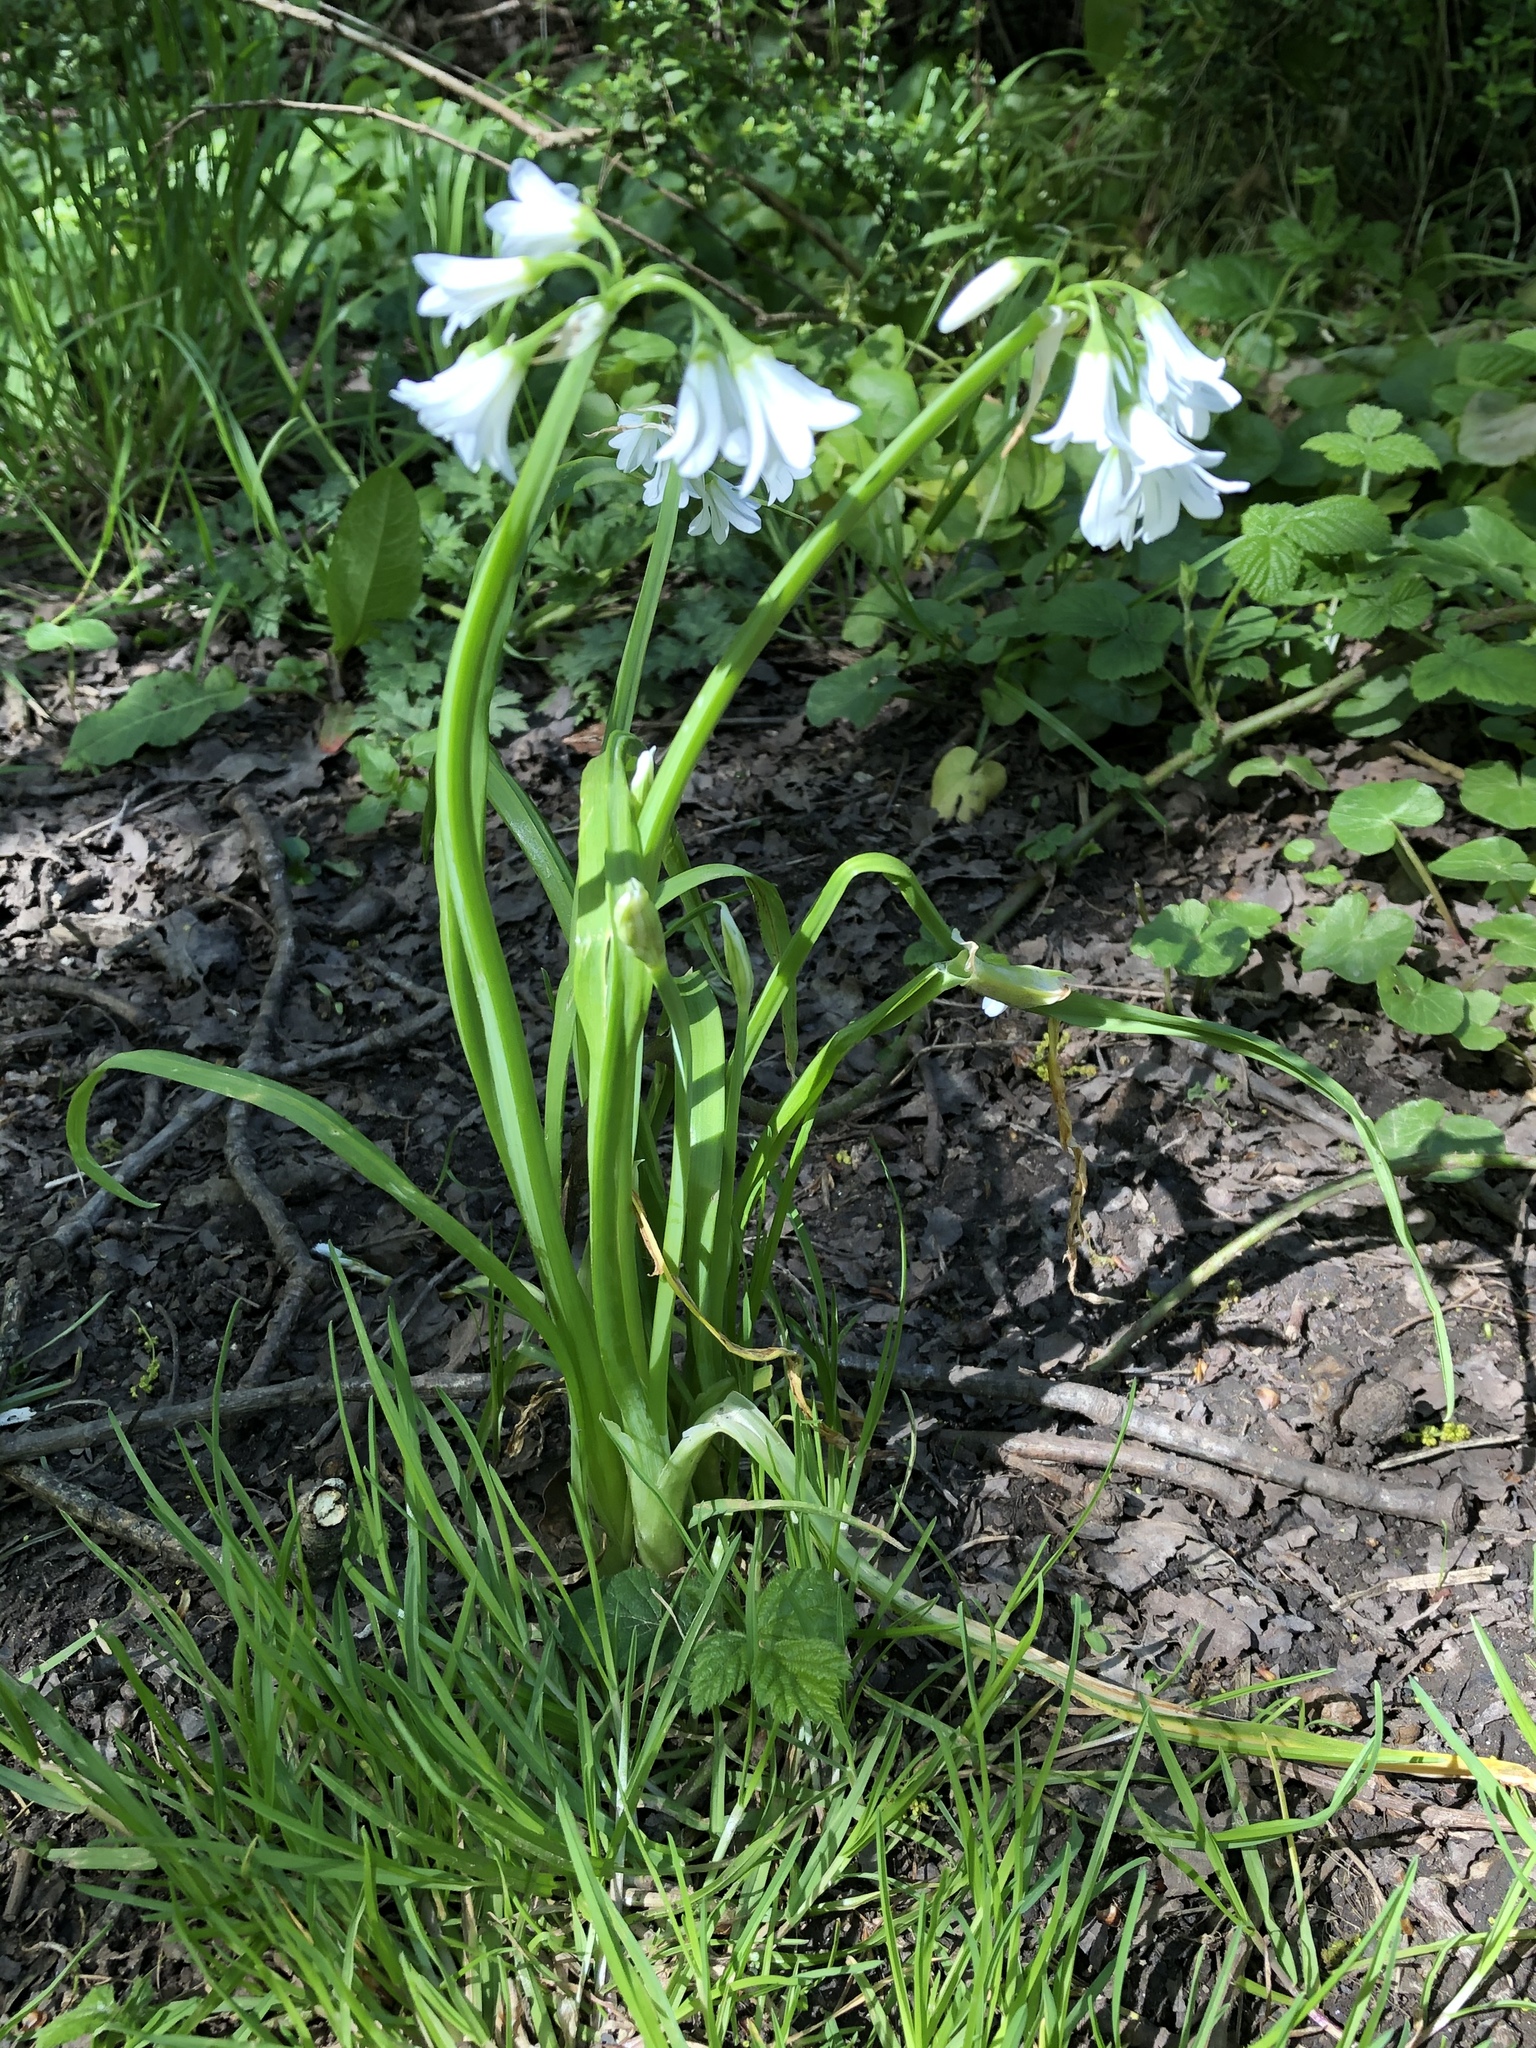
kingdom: Plantae
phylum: Tracheophyta
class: Liliopsida
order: Asparagales
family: Amaryllidaceae
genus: Allium
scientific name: Allium triquetrum
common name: Three-cornered garlic
